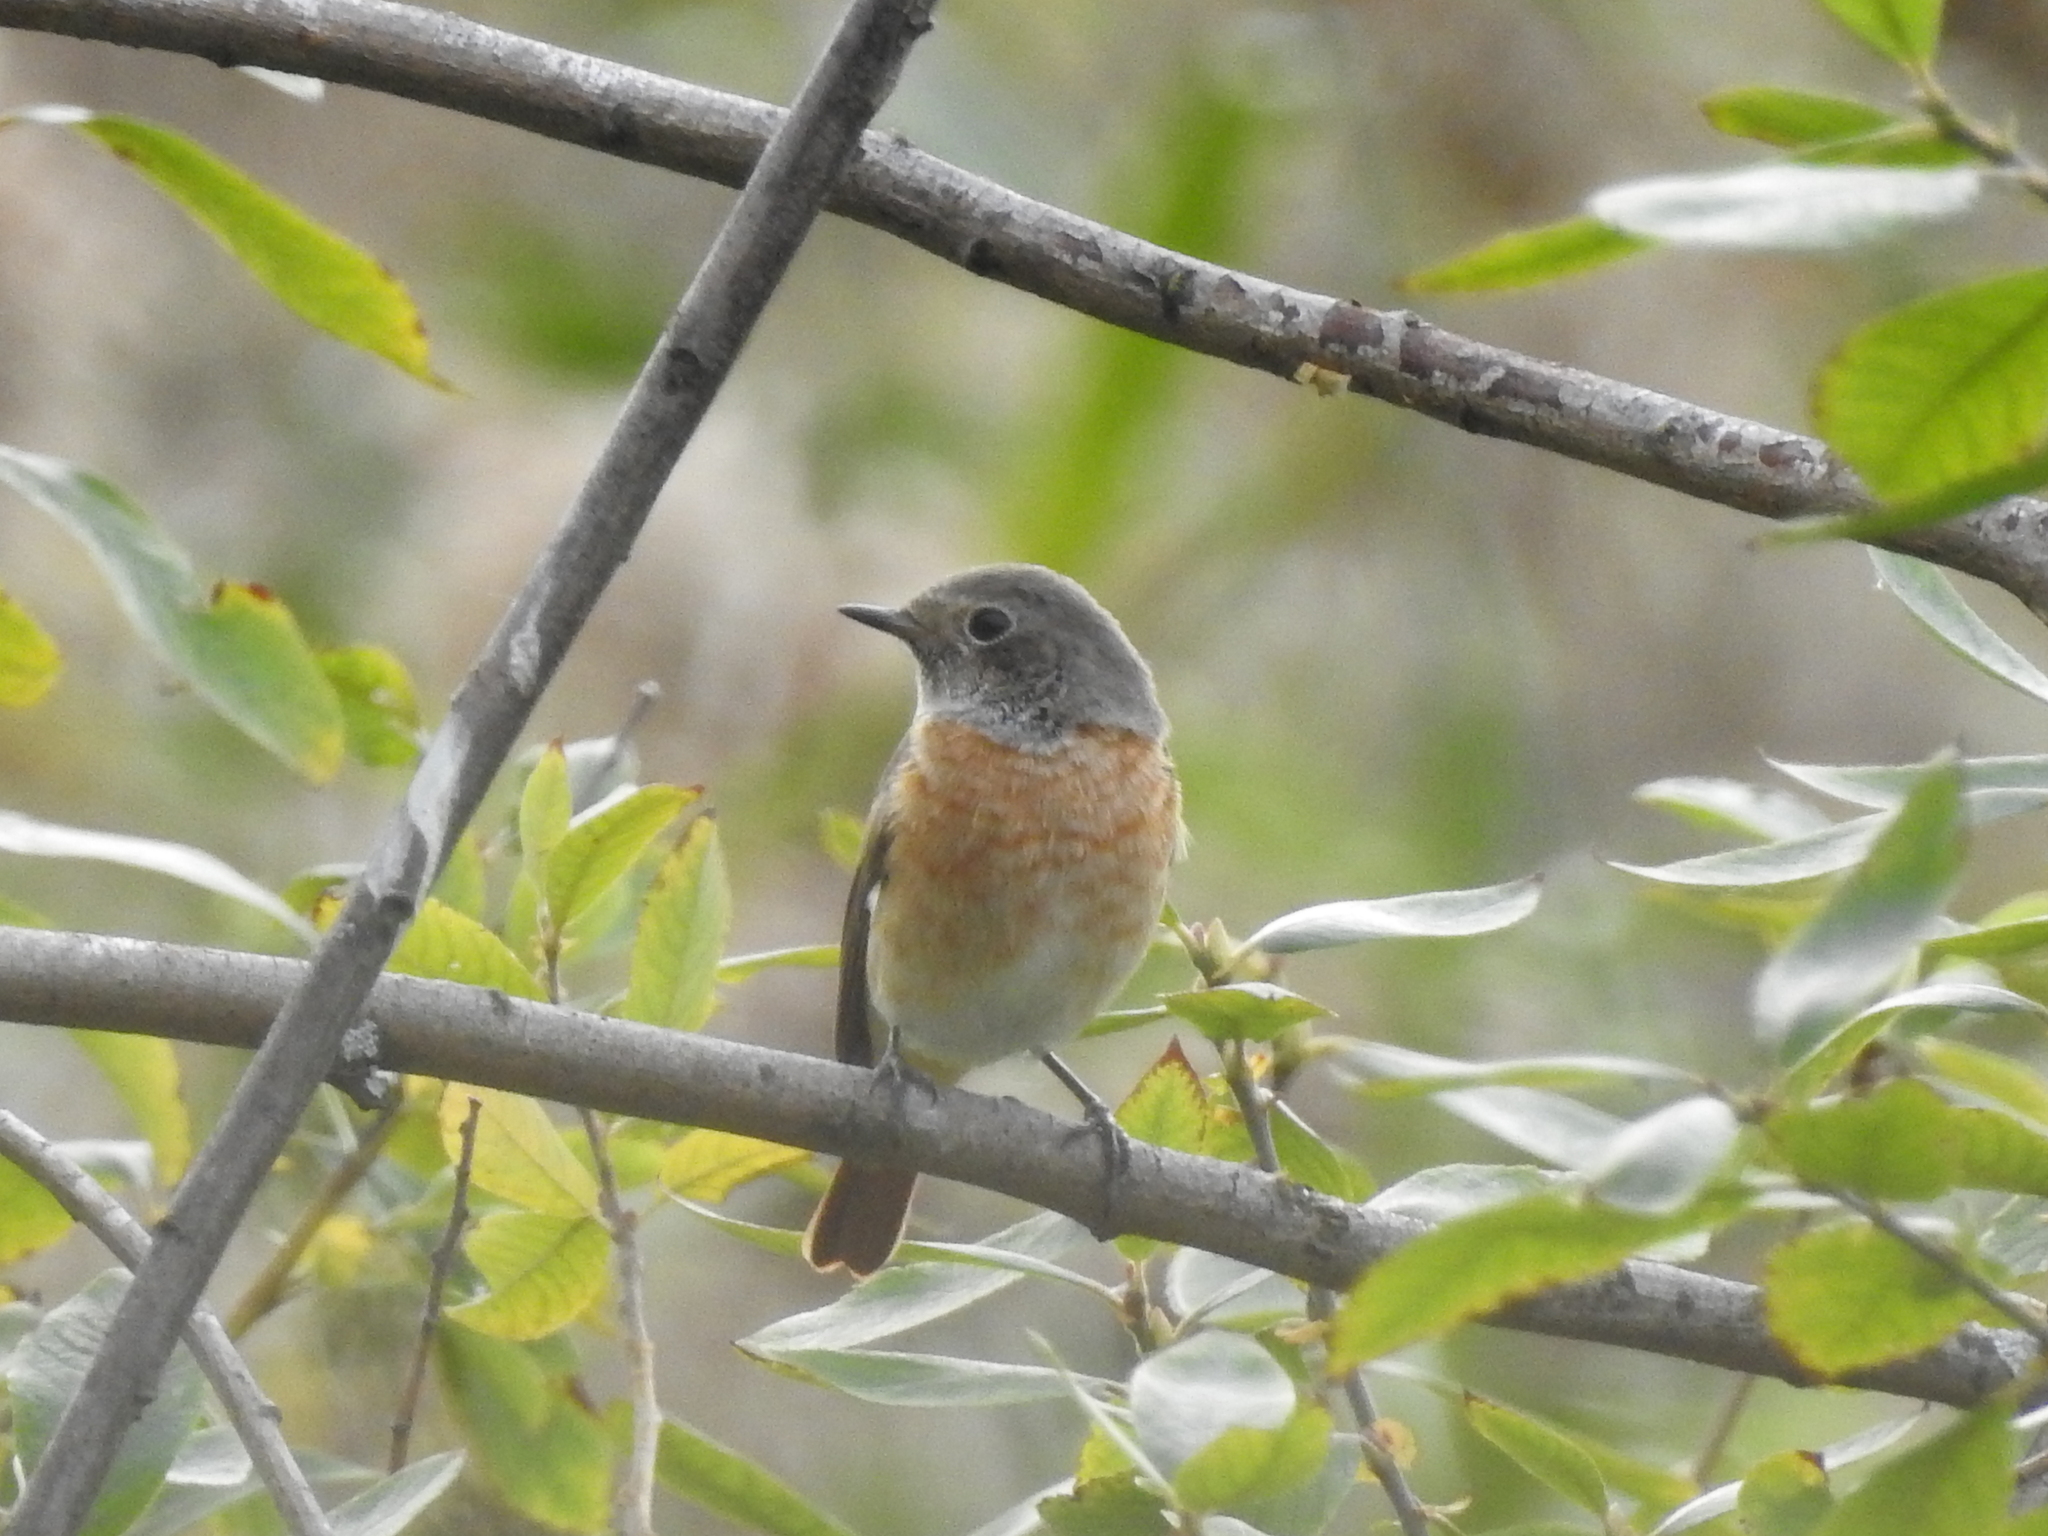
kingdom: Animalia
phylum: Chordata
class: Aves
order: Passeriformes
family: Muscicapidae
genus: Phoenicurus
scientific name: Phoenicurus phoenicurus
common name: Common redstart
